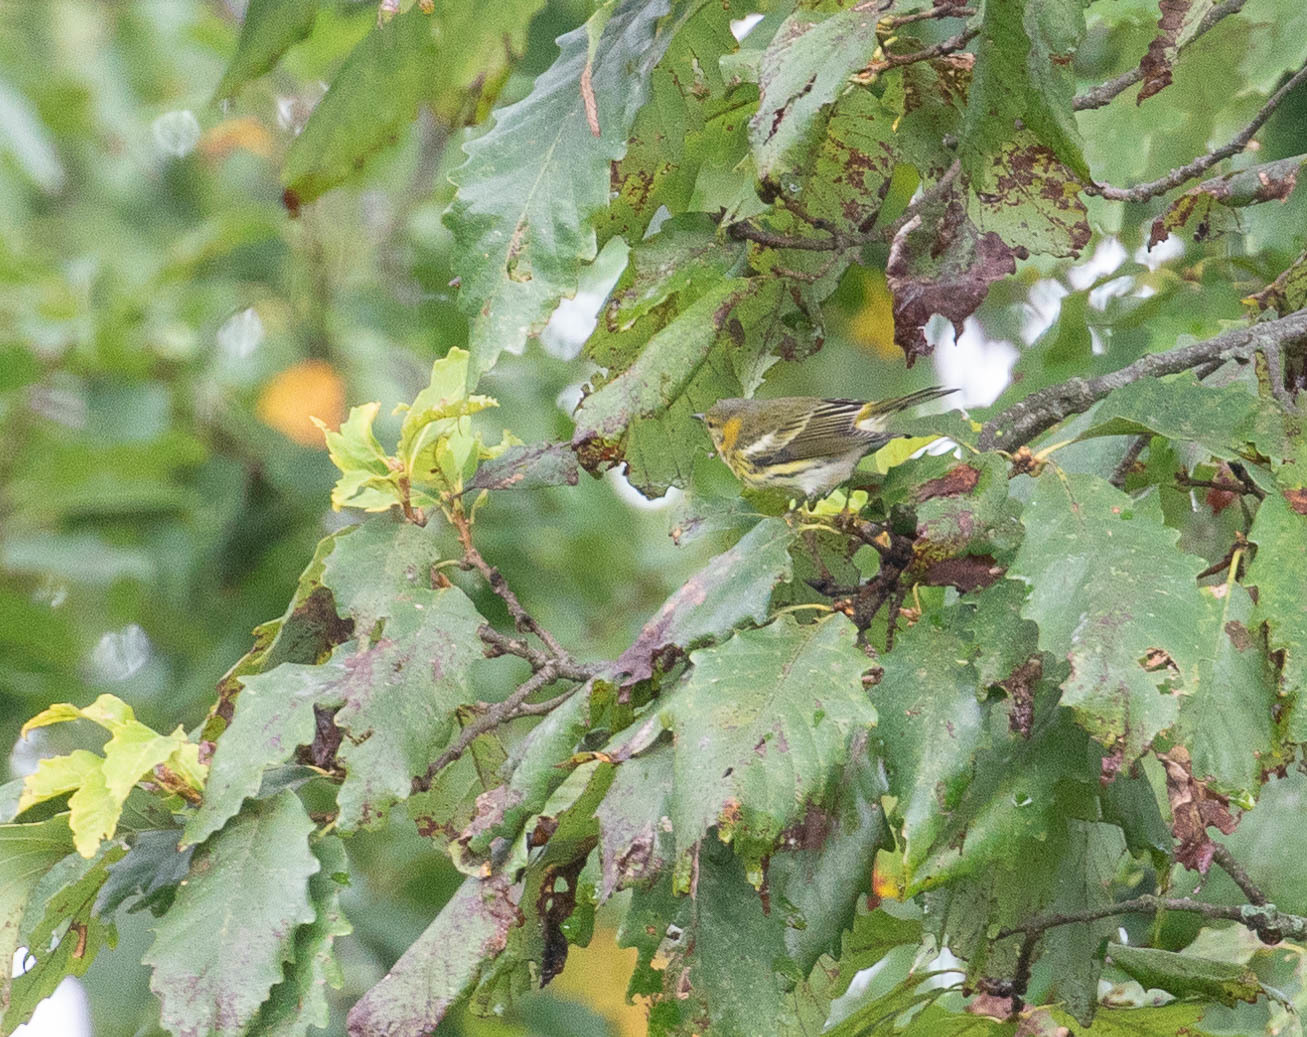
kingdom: Animalia
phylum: Chordata
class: Aves
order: Passeriformes
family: Parulidae
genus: Setophaga
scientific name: Setophaga tigrina
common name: Cape may warbler
